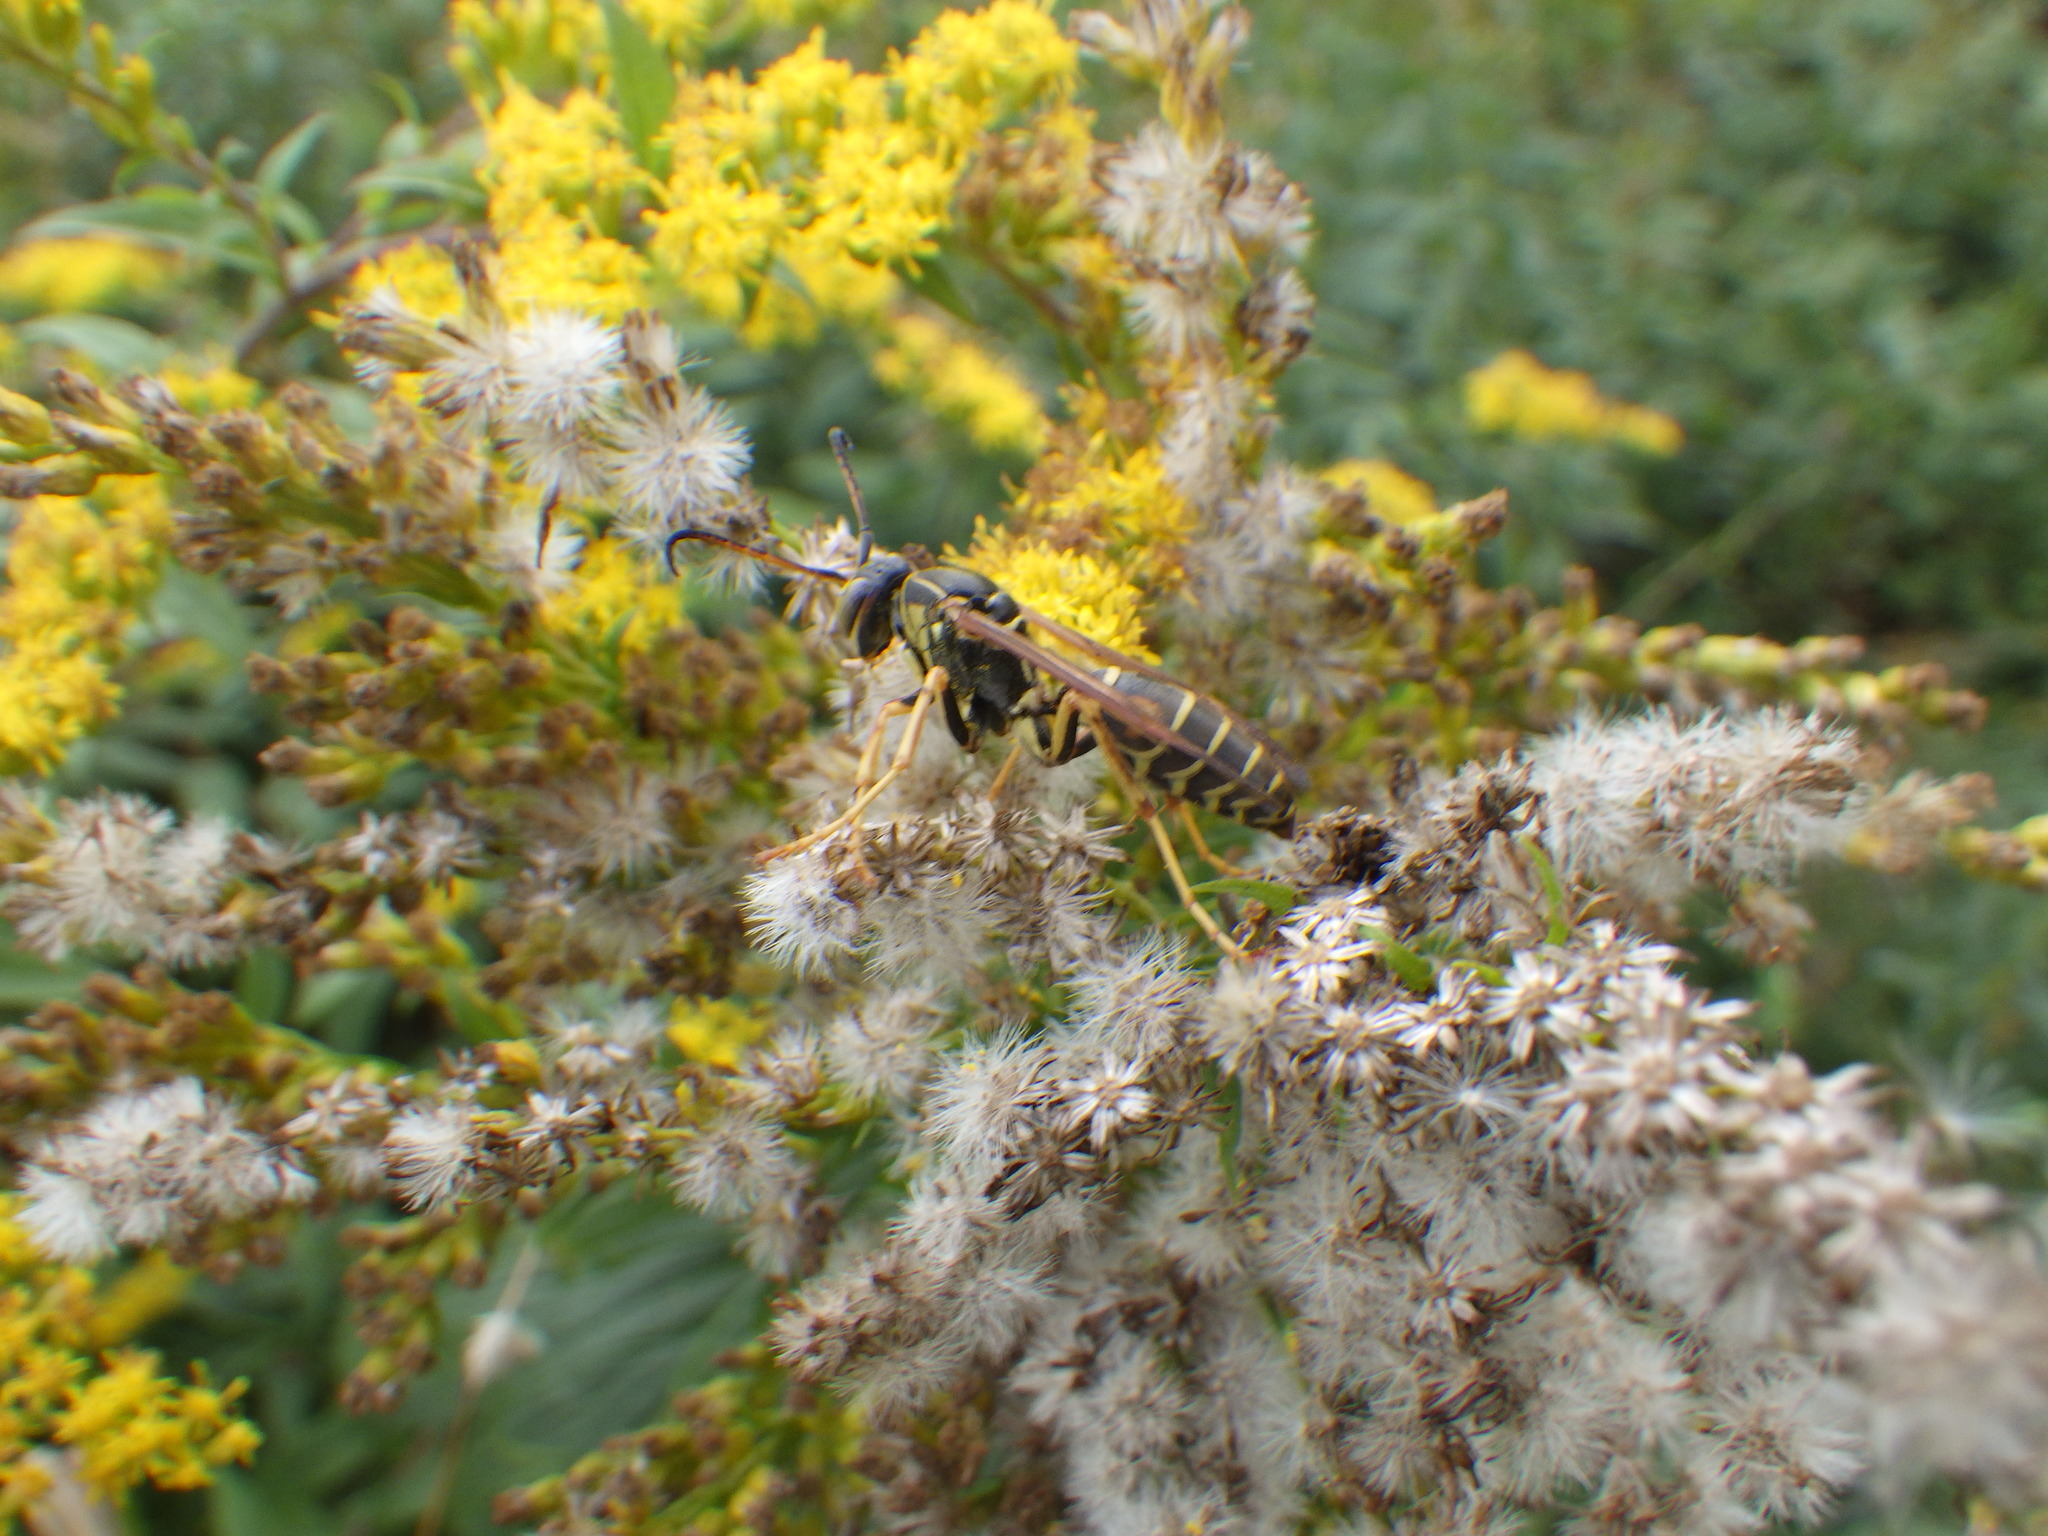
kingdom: Animalia
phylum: Arthropoda
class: Insecta
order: Hymenoptera
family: Eumenidae
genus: Polistes
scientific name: Polistes fuscatus
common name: Dark paper wasp
